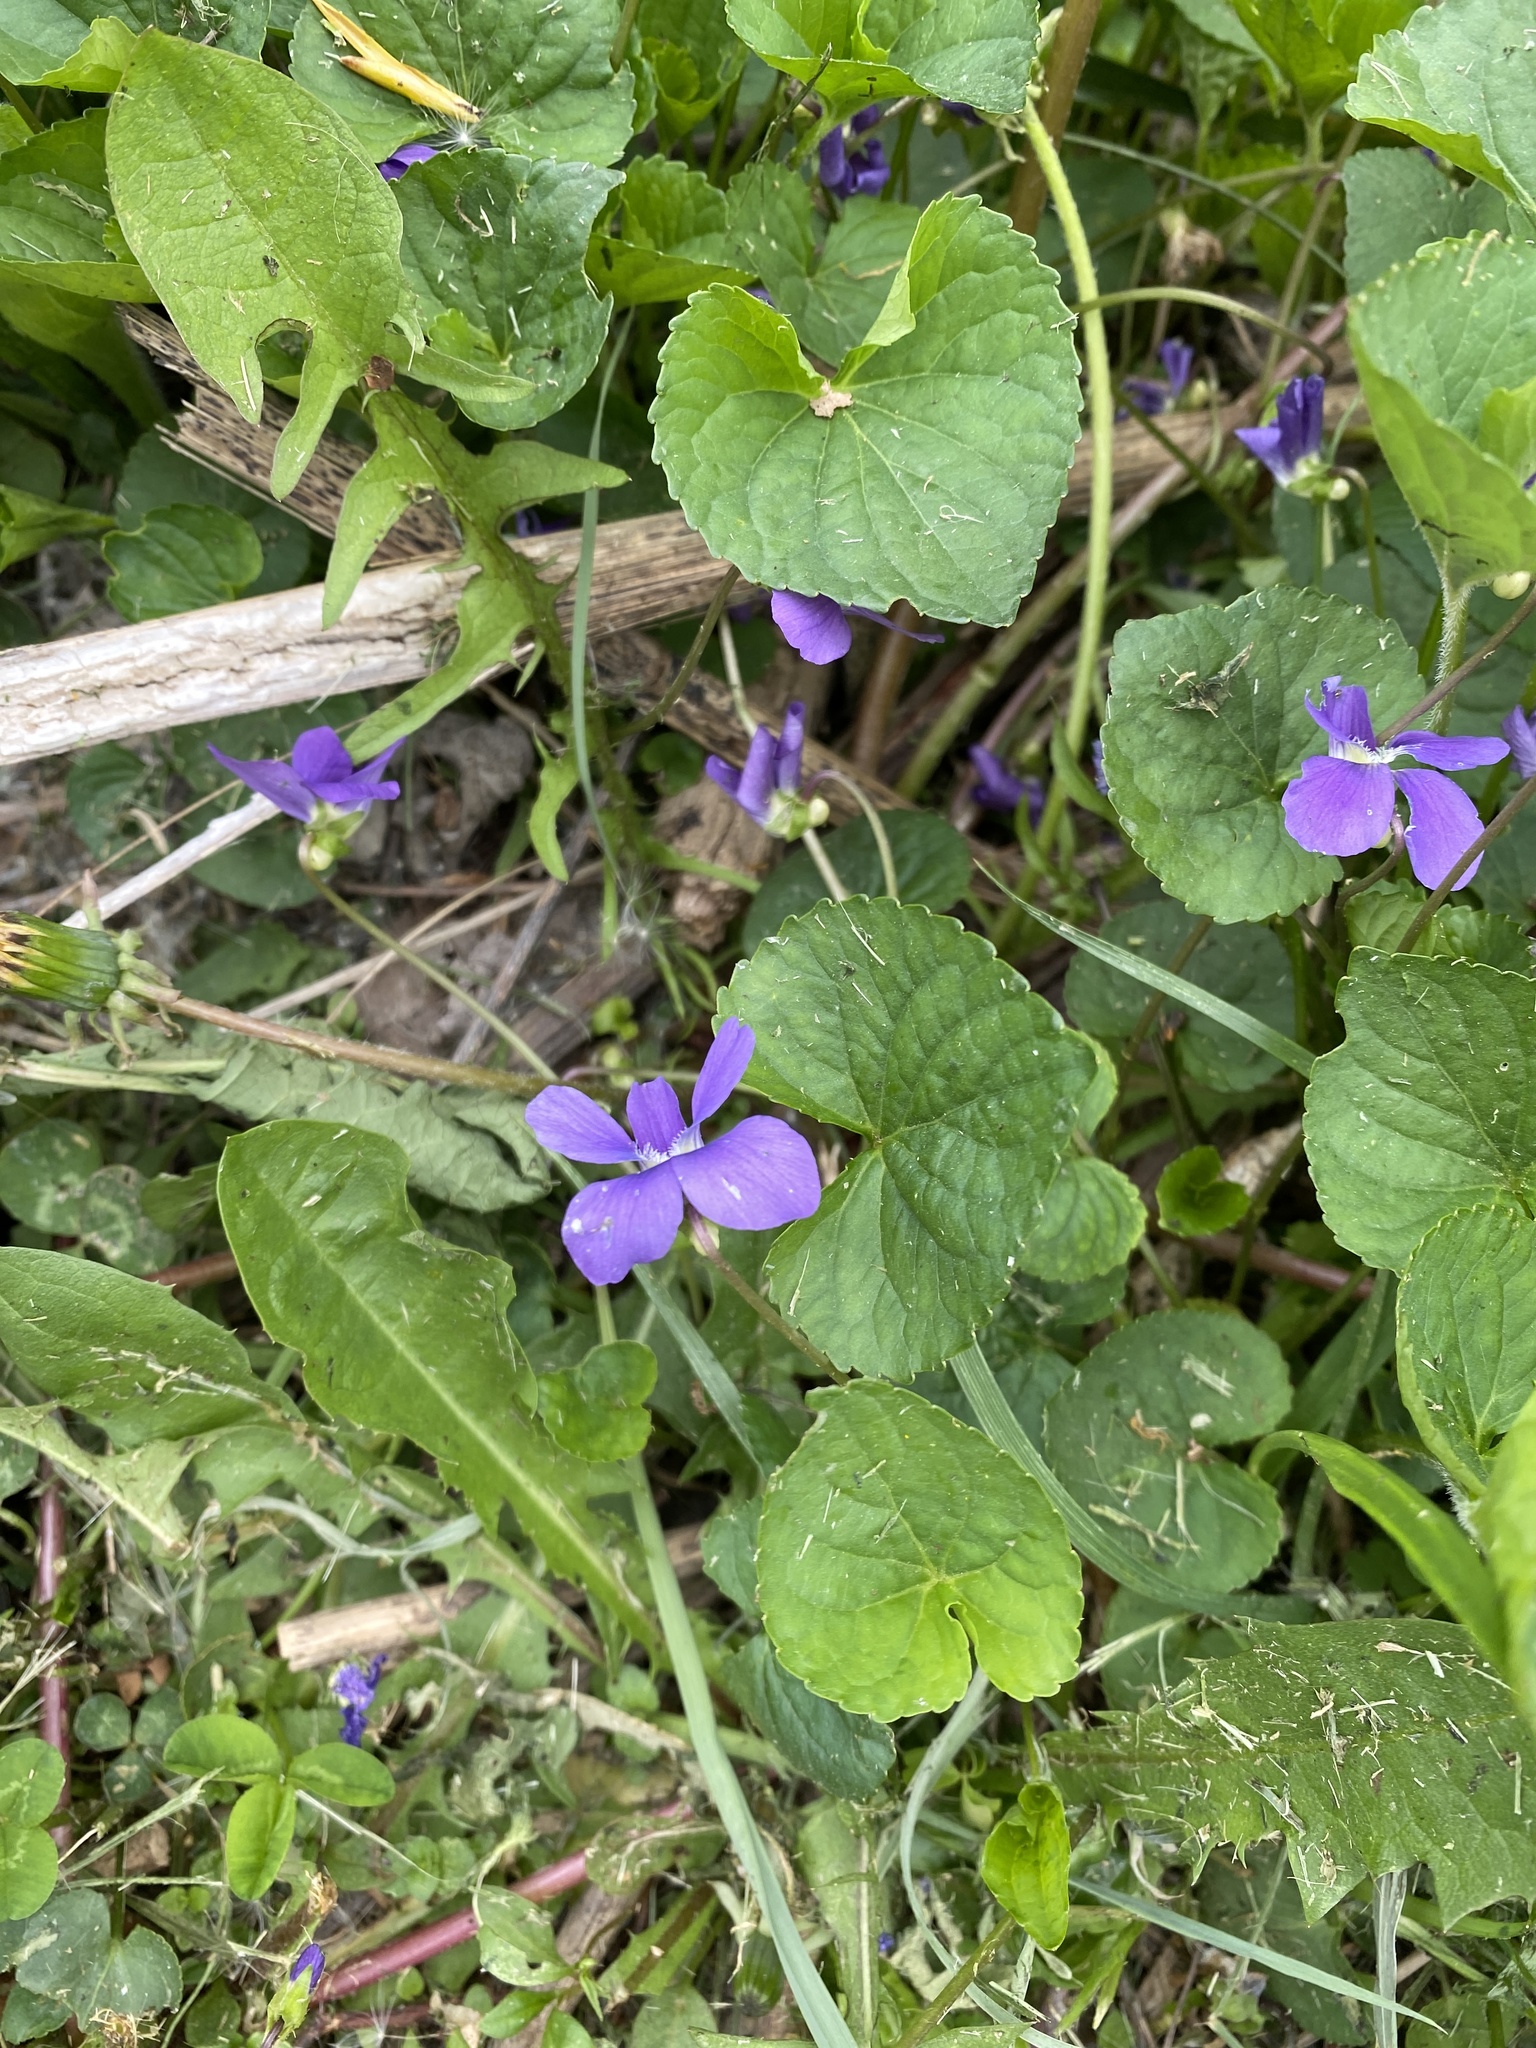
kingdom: Plantae
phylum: Tracheophyta
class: Magnoliopsida
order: Malpighiales
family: Violaceae
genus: Viola
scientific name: Viola sororia
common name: Dooryard violet
